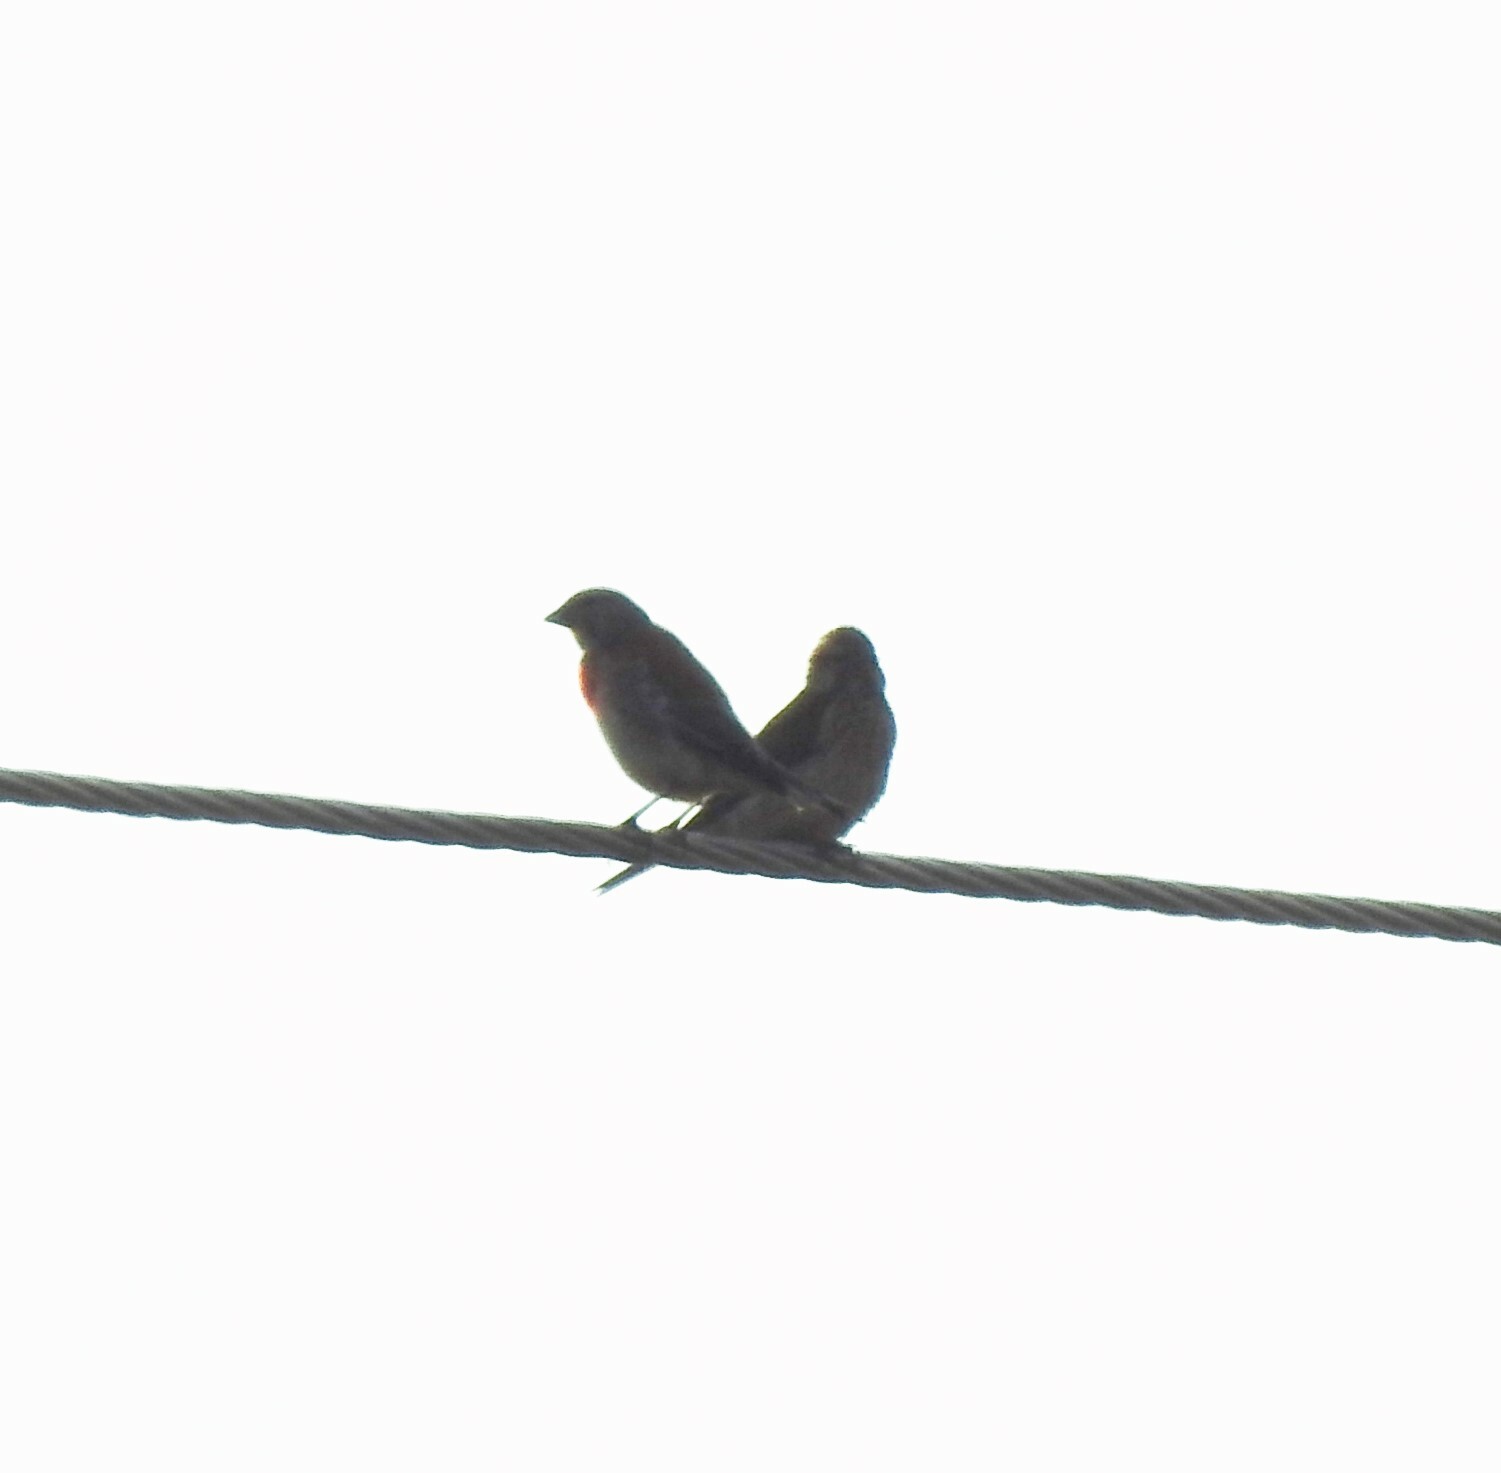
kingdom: Animalia
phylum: Chordata
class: Aves
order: Passeriformes
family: Fringillidae
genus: Linaria
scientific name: Linaria cannabina
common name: Common linnet
